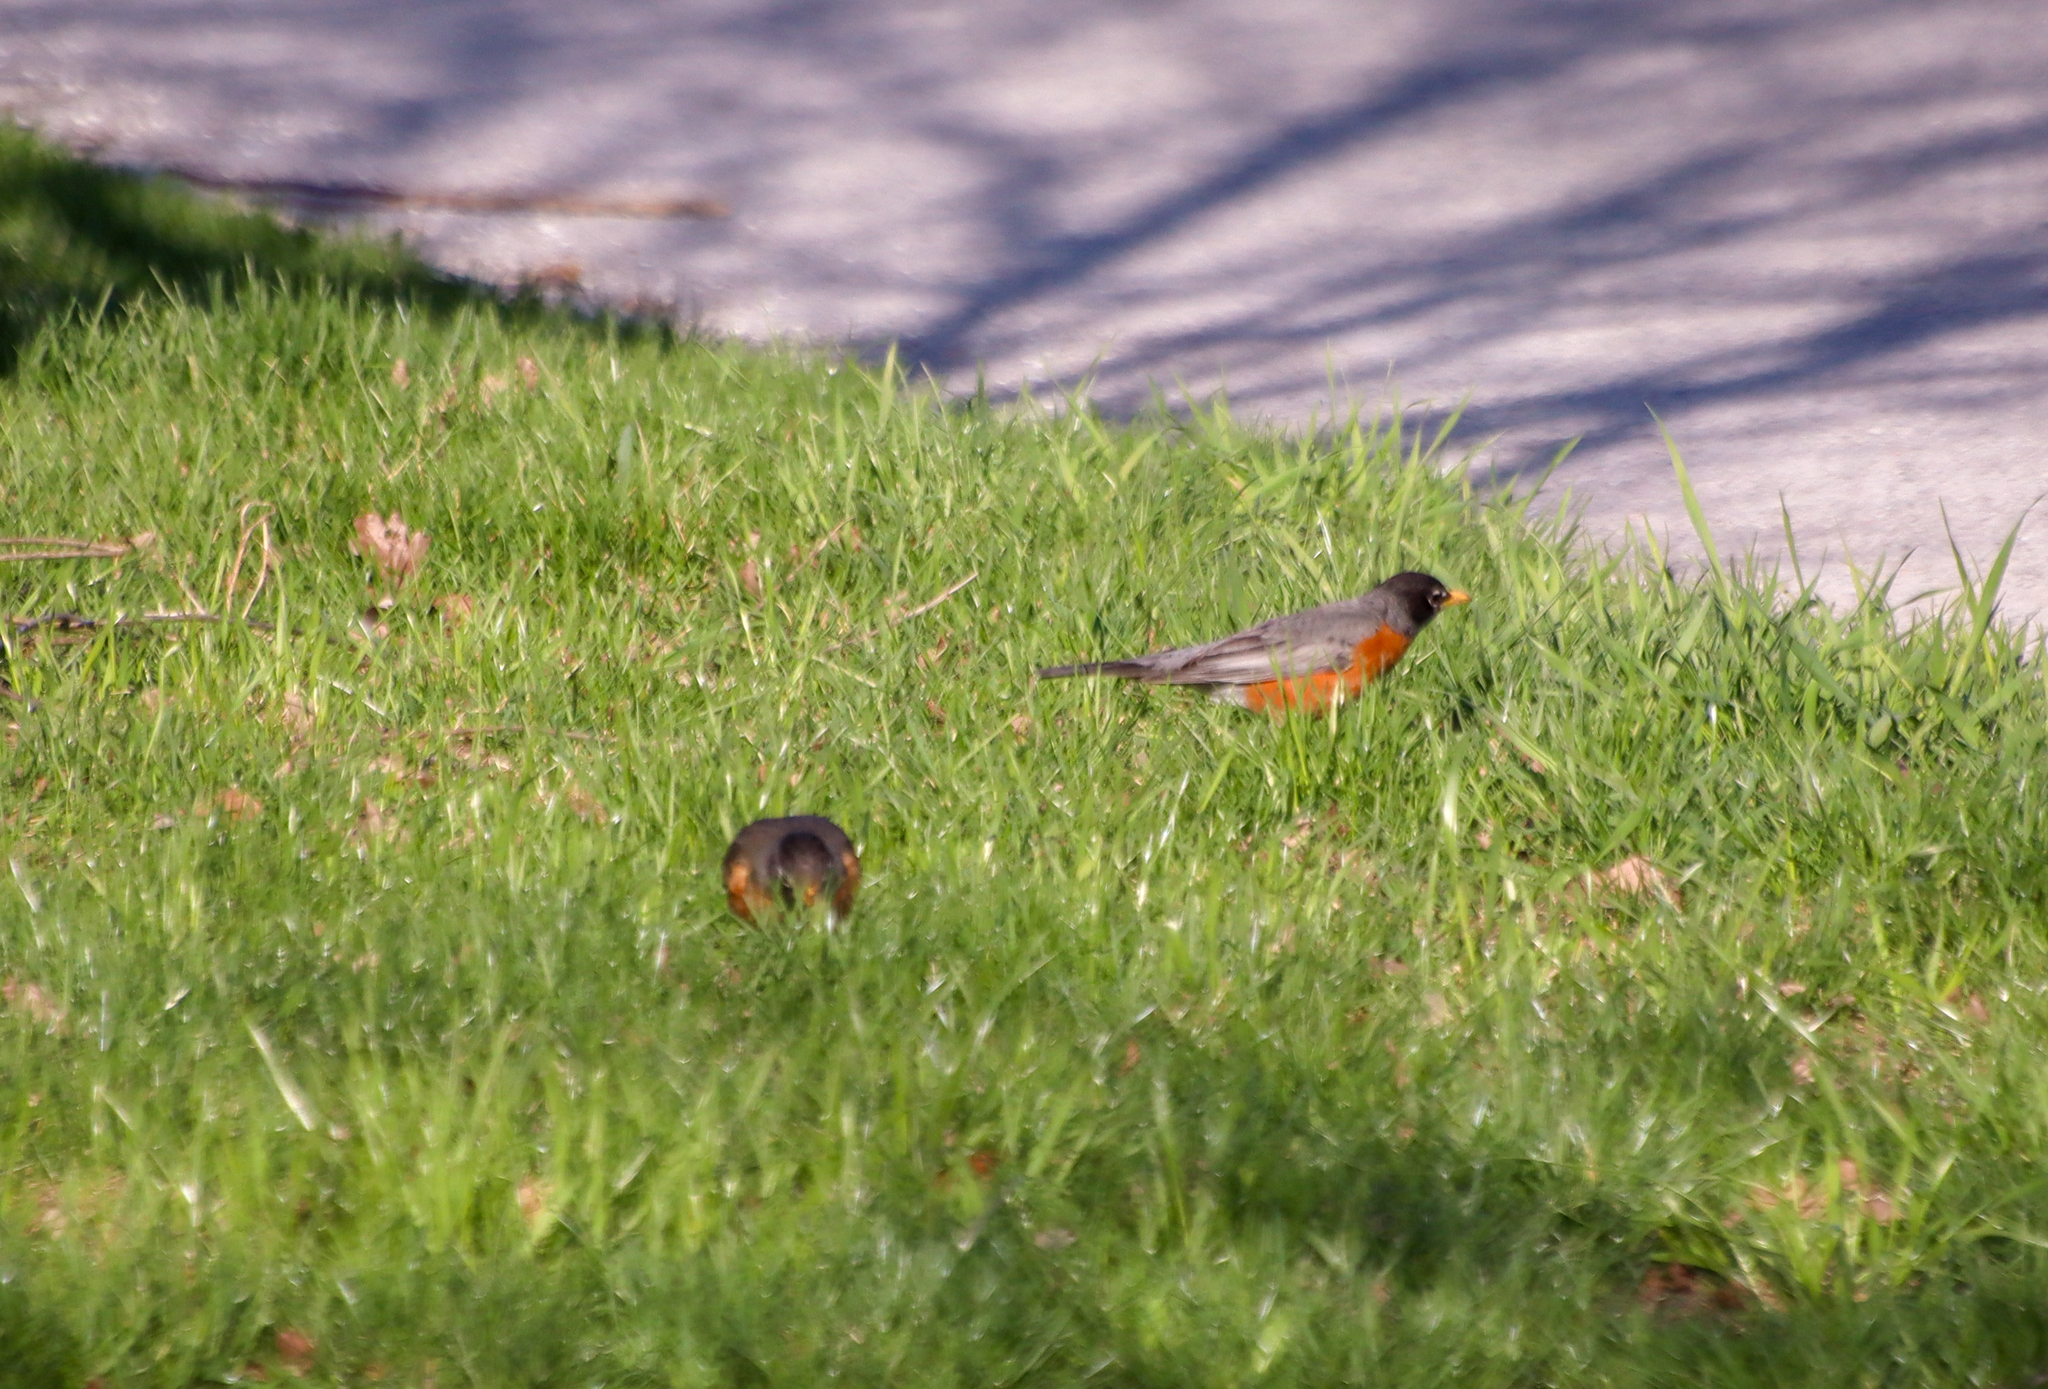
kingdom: Animalia
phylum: Chordata
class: Aves
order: Passeriformes
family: Turdidae
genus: Turdus
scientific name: Turdus migratorius
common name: American robin
